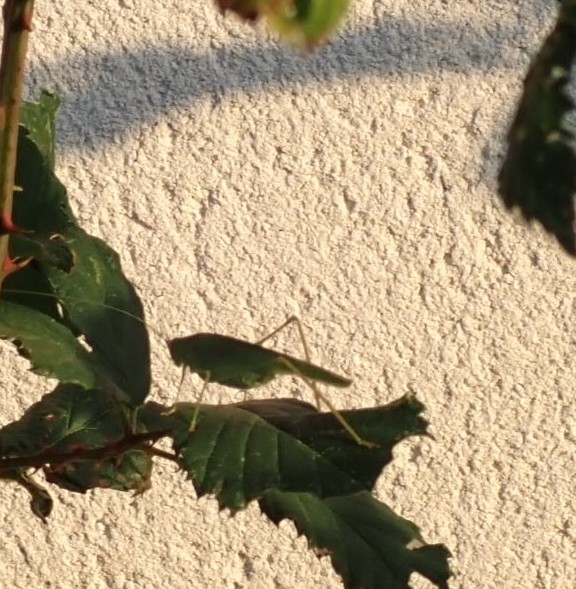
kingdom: Animalia
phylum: Arthropoda
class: Insecta
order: Orthoptera
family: Tettigoniidae
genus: Phaneroptera
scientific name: Phaneroptera nana
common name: Southern sickle bush-cricket
